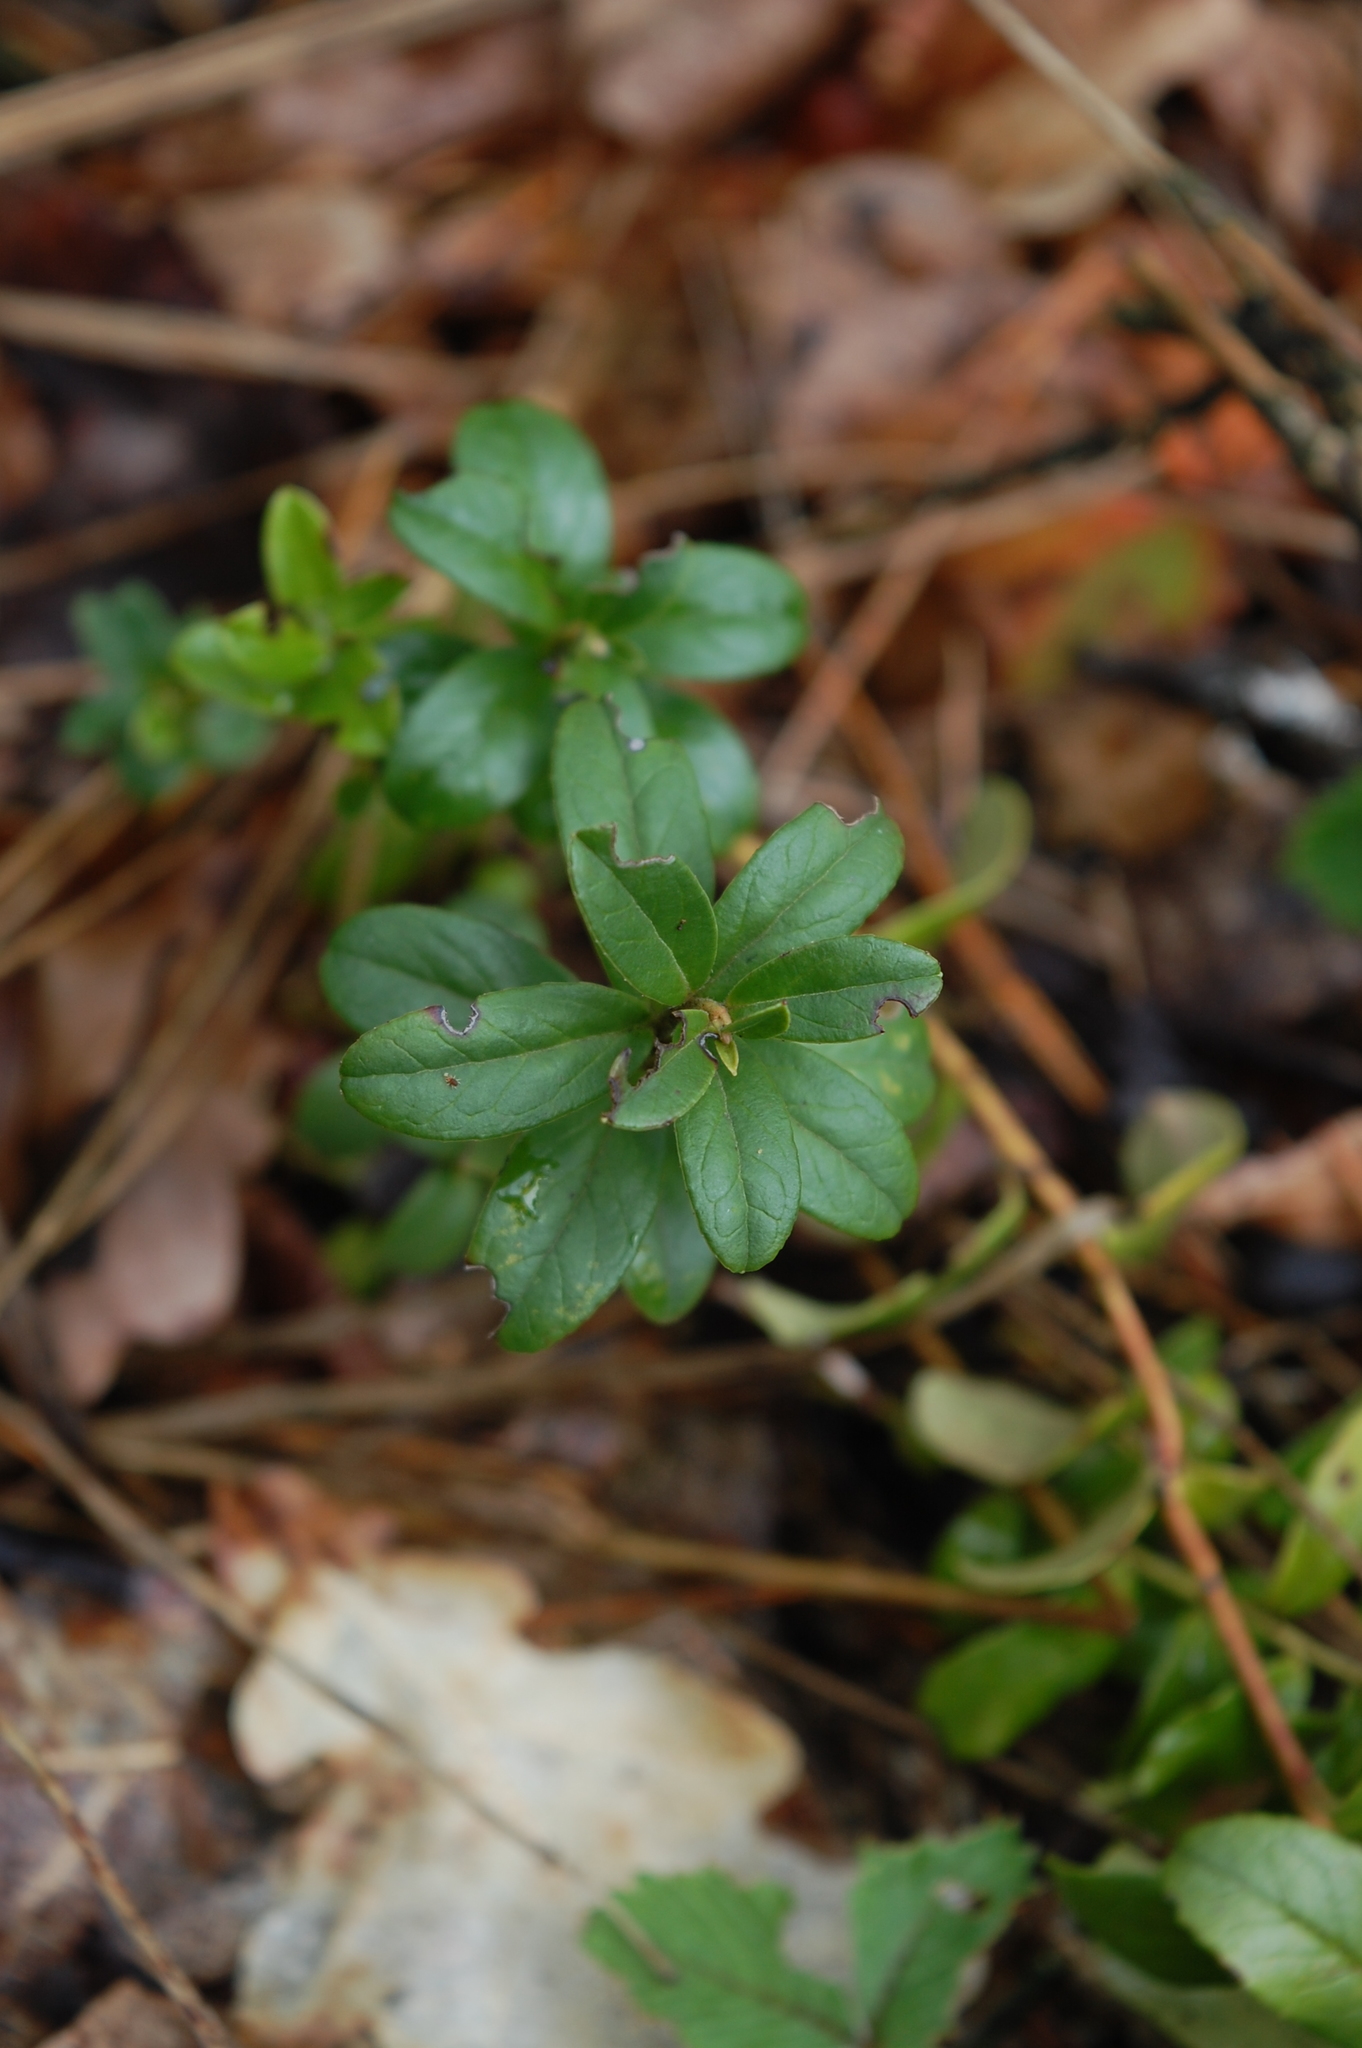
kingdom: Plantae
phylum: Tracheophyta
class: Magnoliopsida
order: Ericales
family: Ericaceae
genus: Vaccinium
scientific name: Vaccinium vitis-idaea
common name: Cowberry
